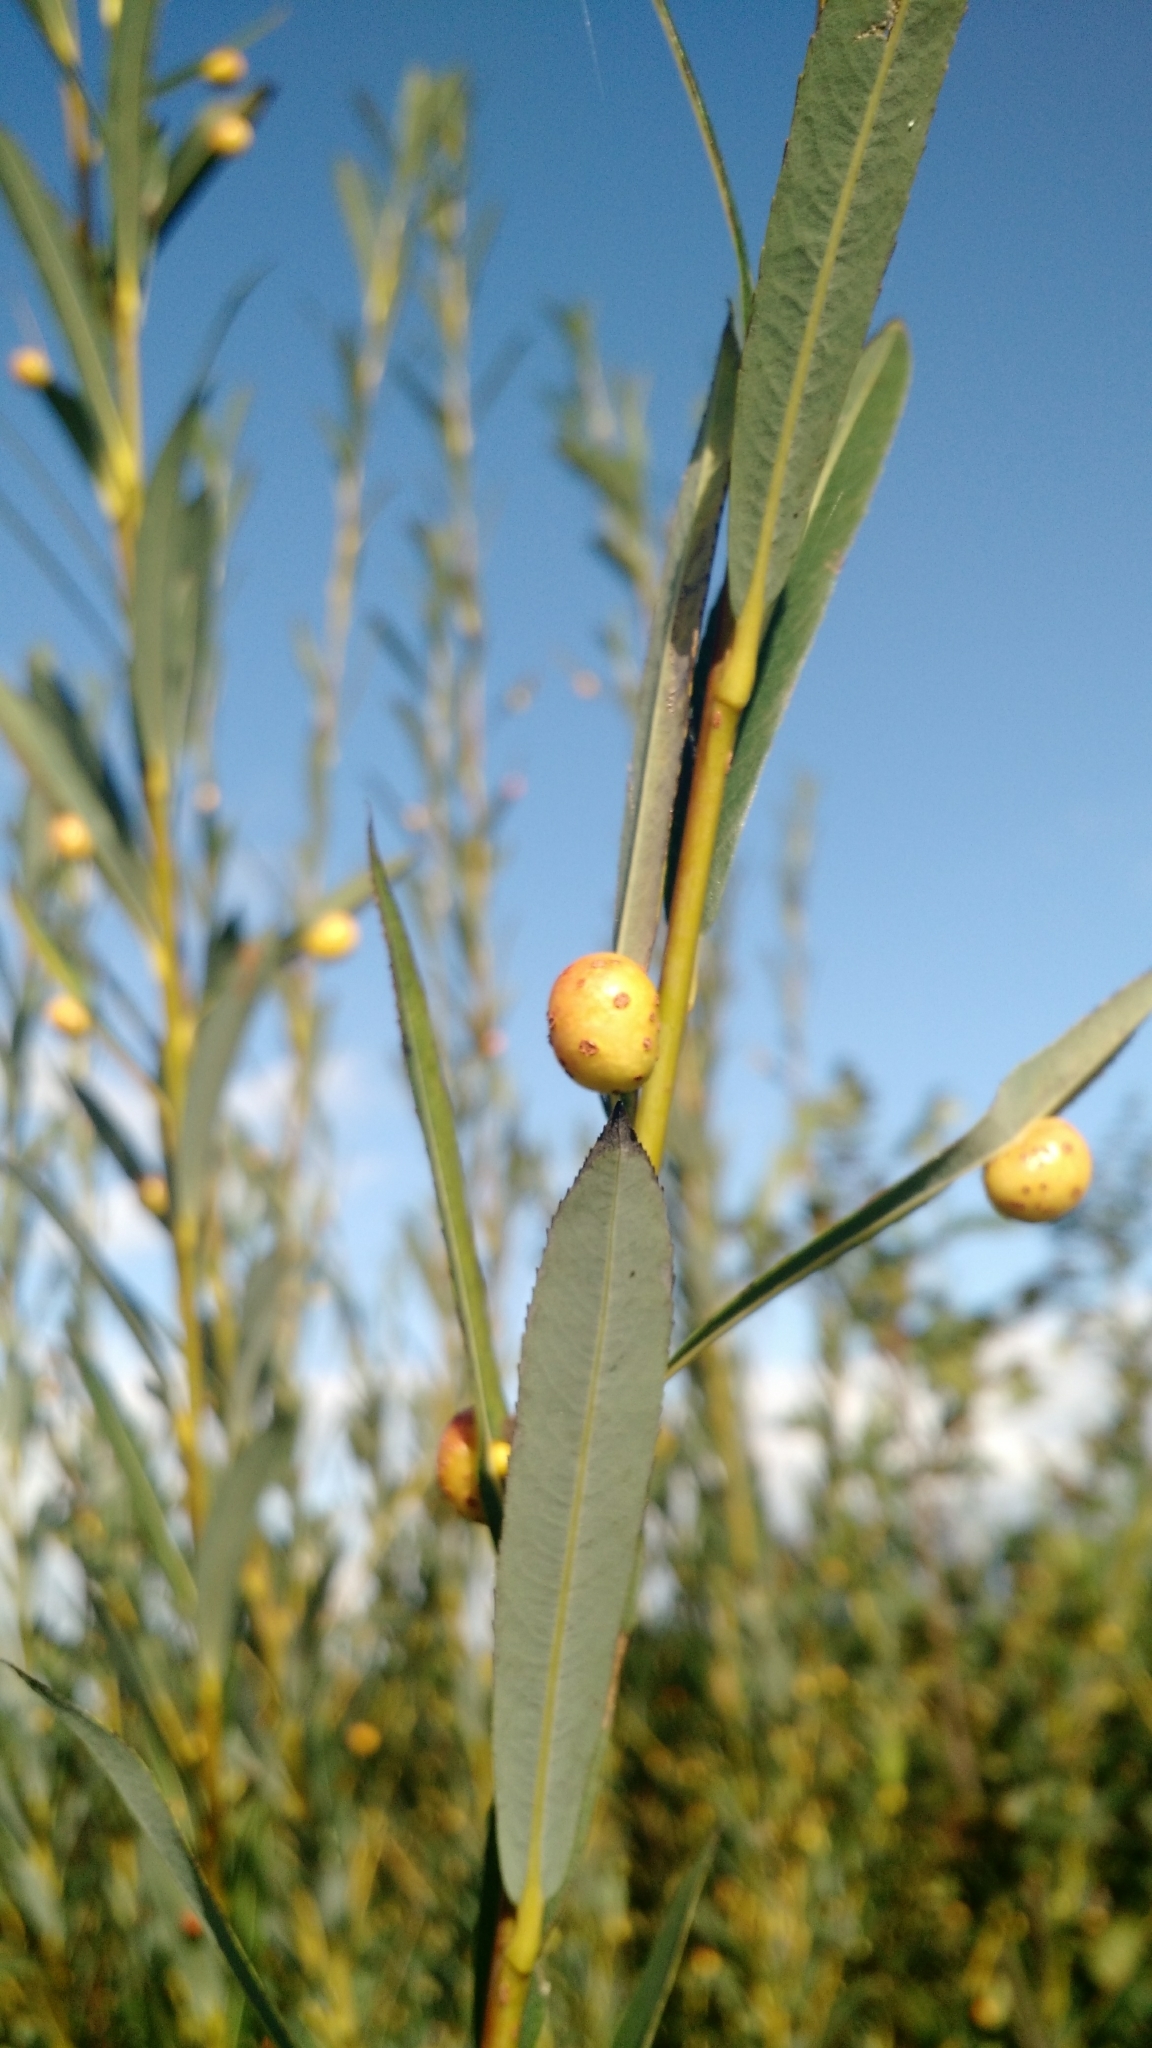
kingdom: Animalia
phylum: Arthropoda
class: Insecta
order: Hymenoptera
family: Tenthredinidae
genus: Euura
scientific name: Euura viminalis
